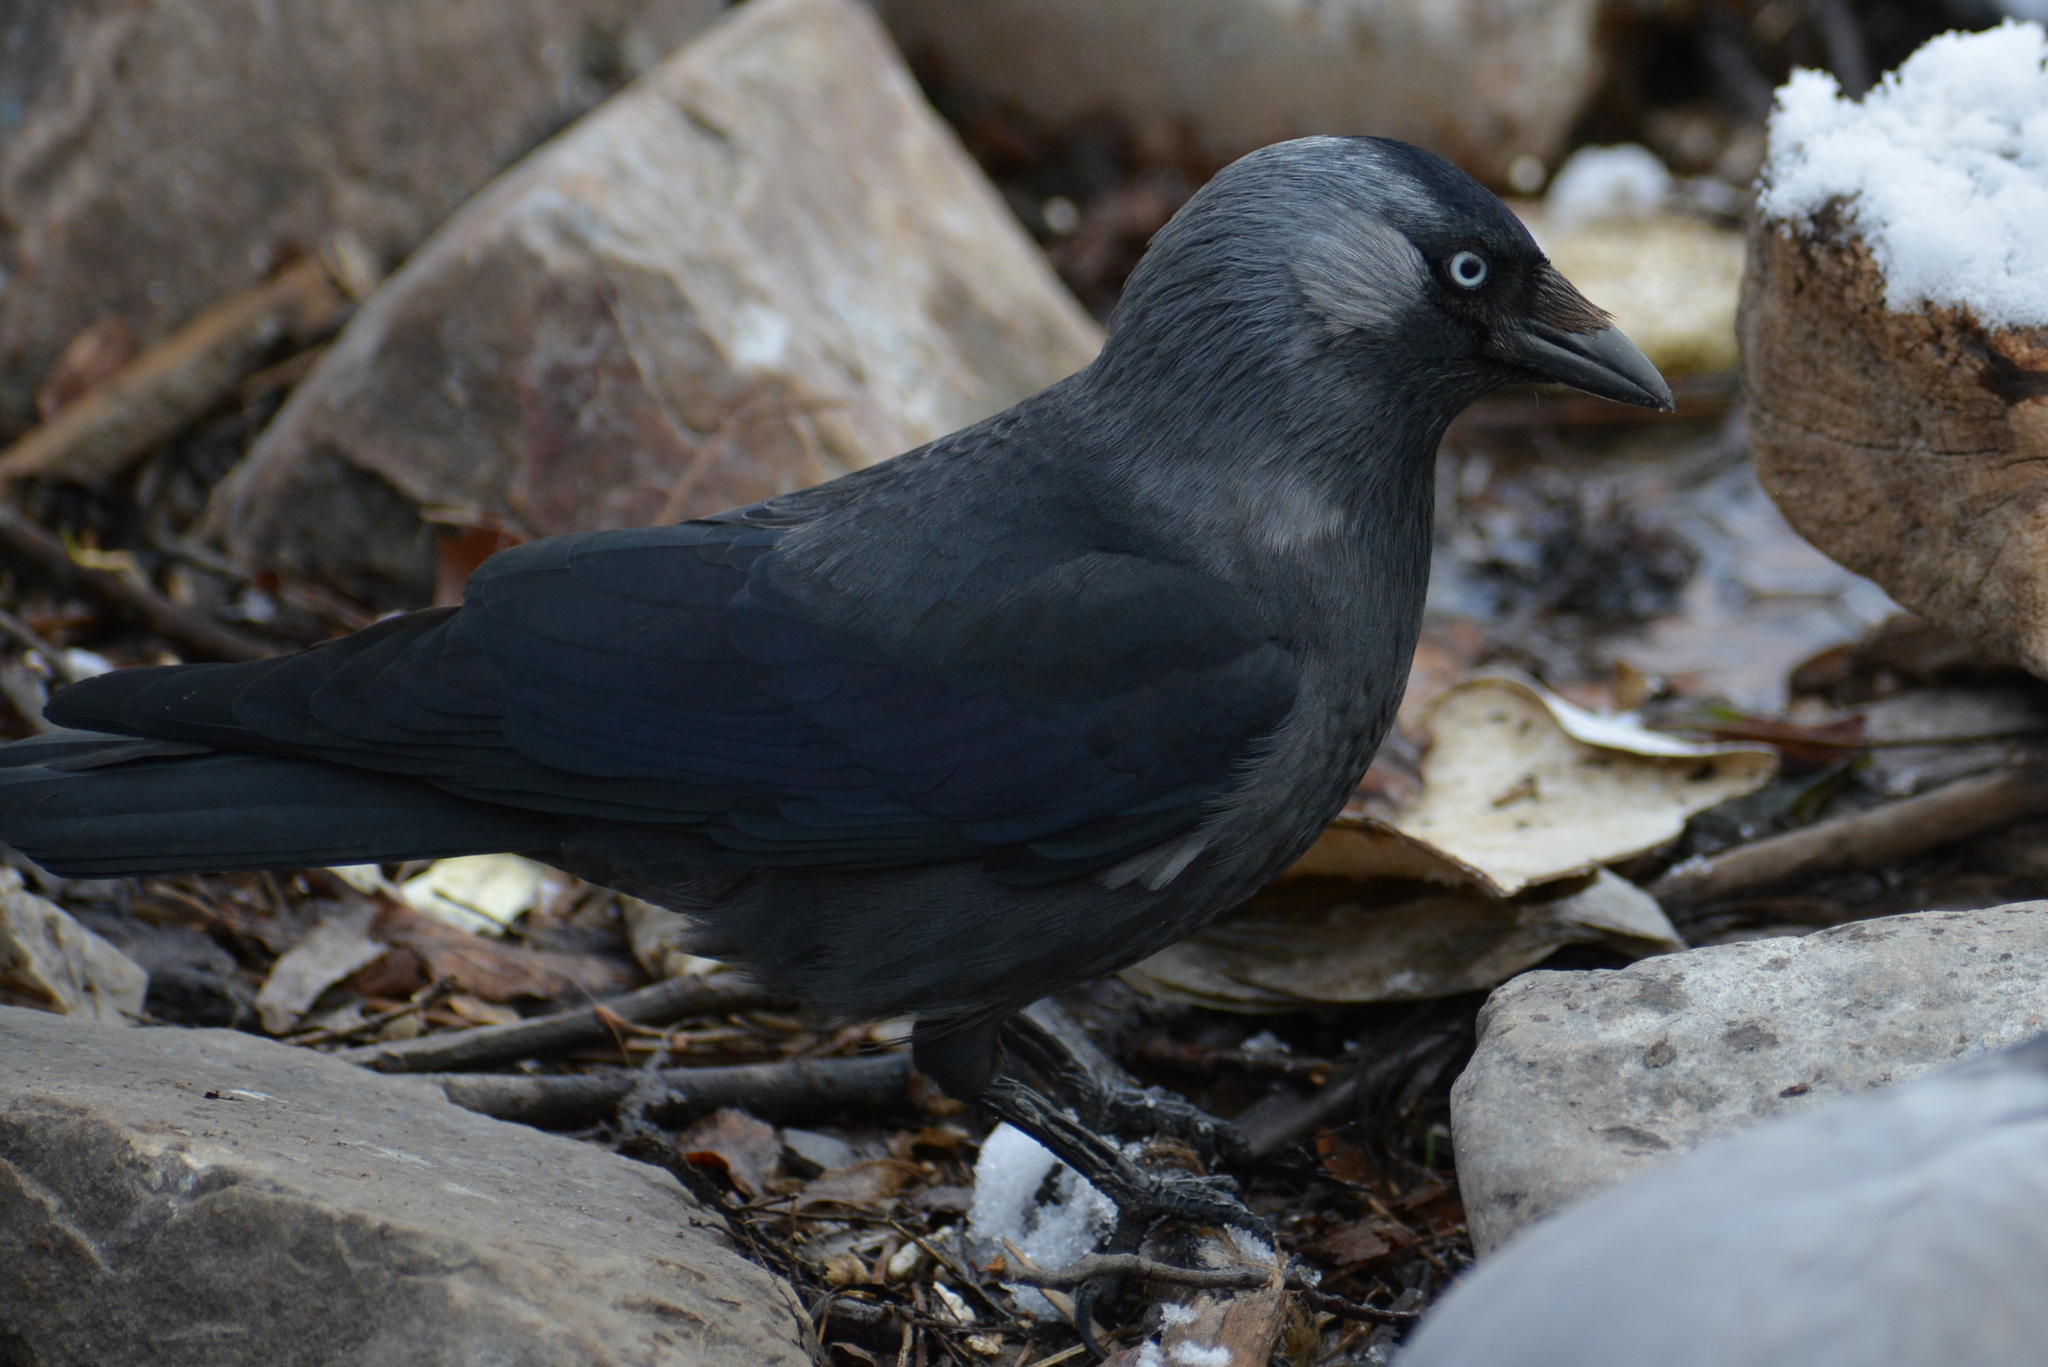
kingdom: Animalia
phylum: Chordata
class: Aves
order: Passeriformes
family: Corvidae
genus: Coloeus
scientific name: Coloeus monedula
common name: Western jackdaw
